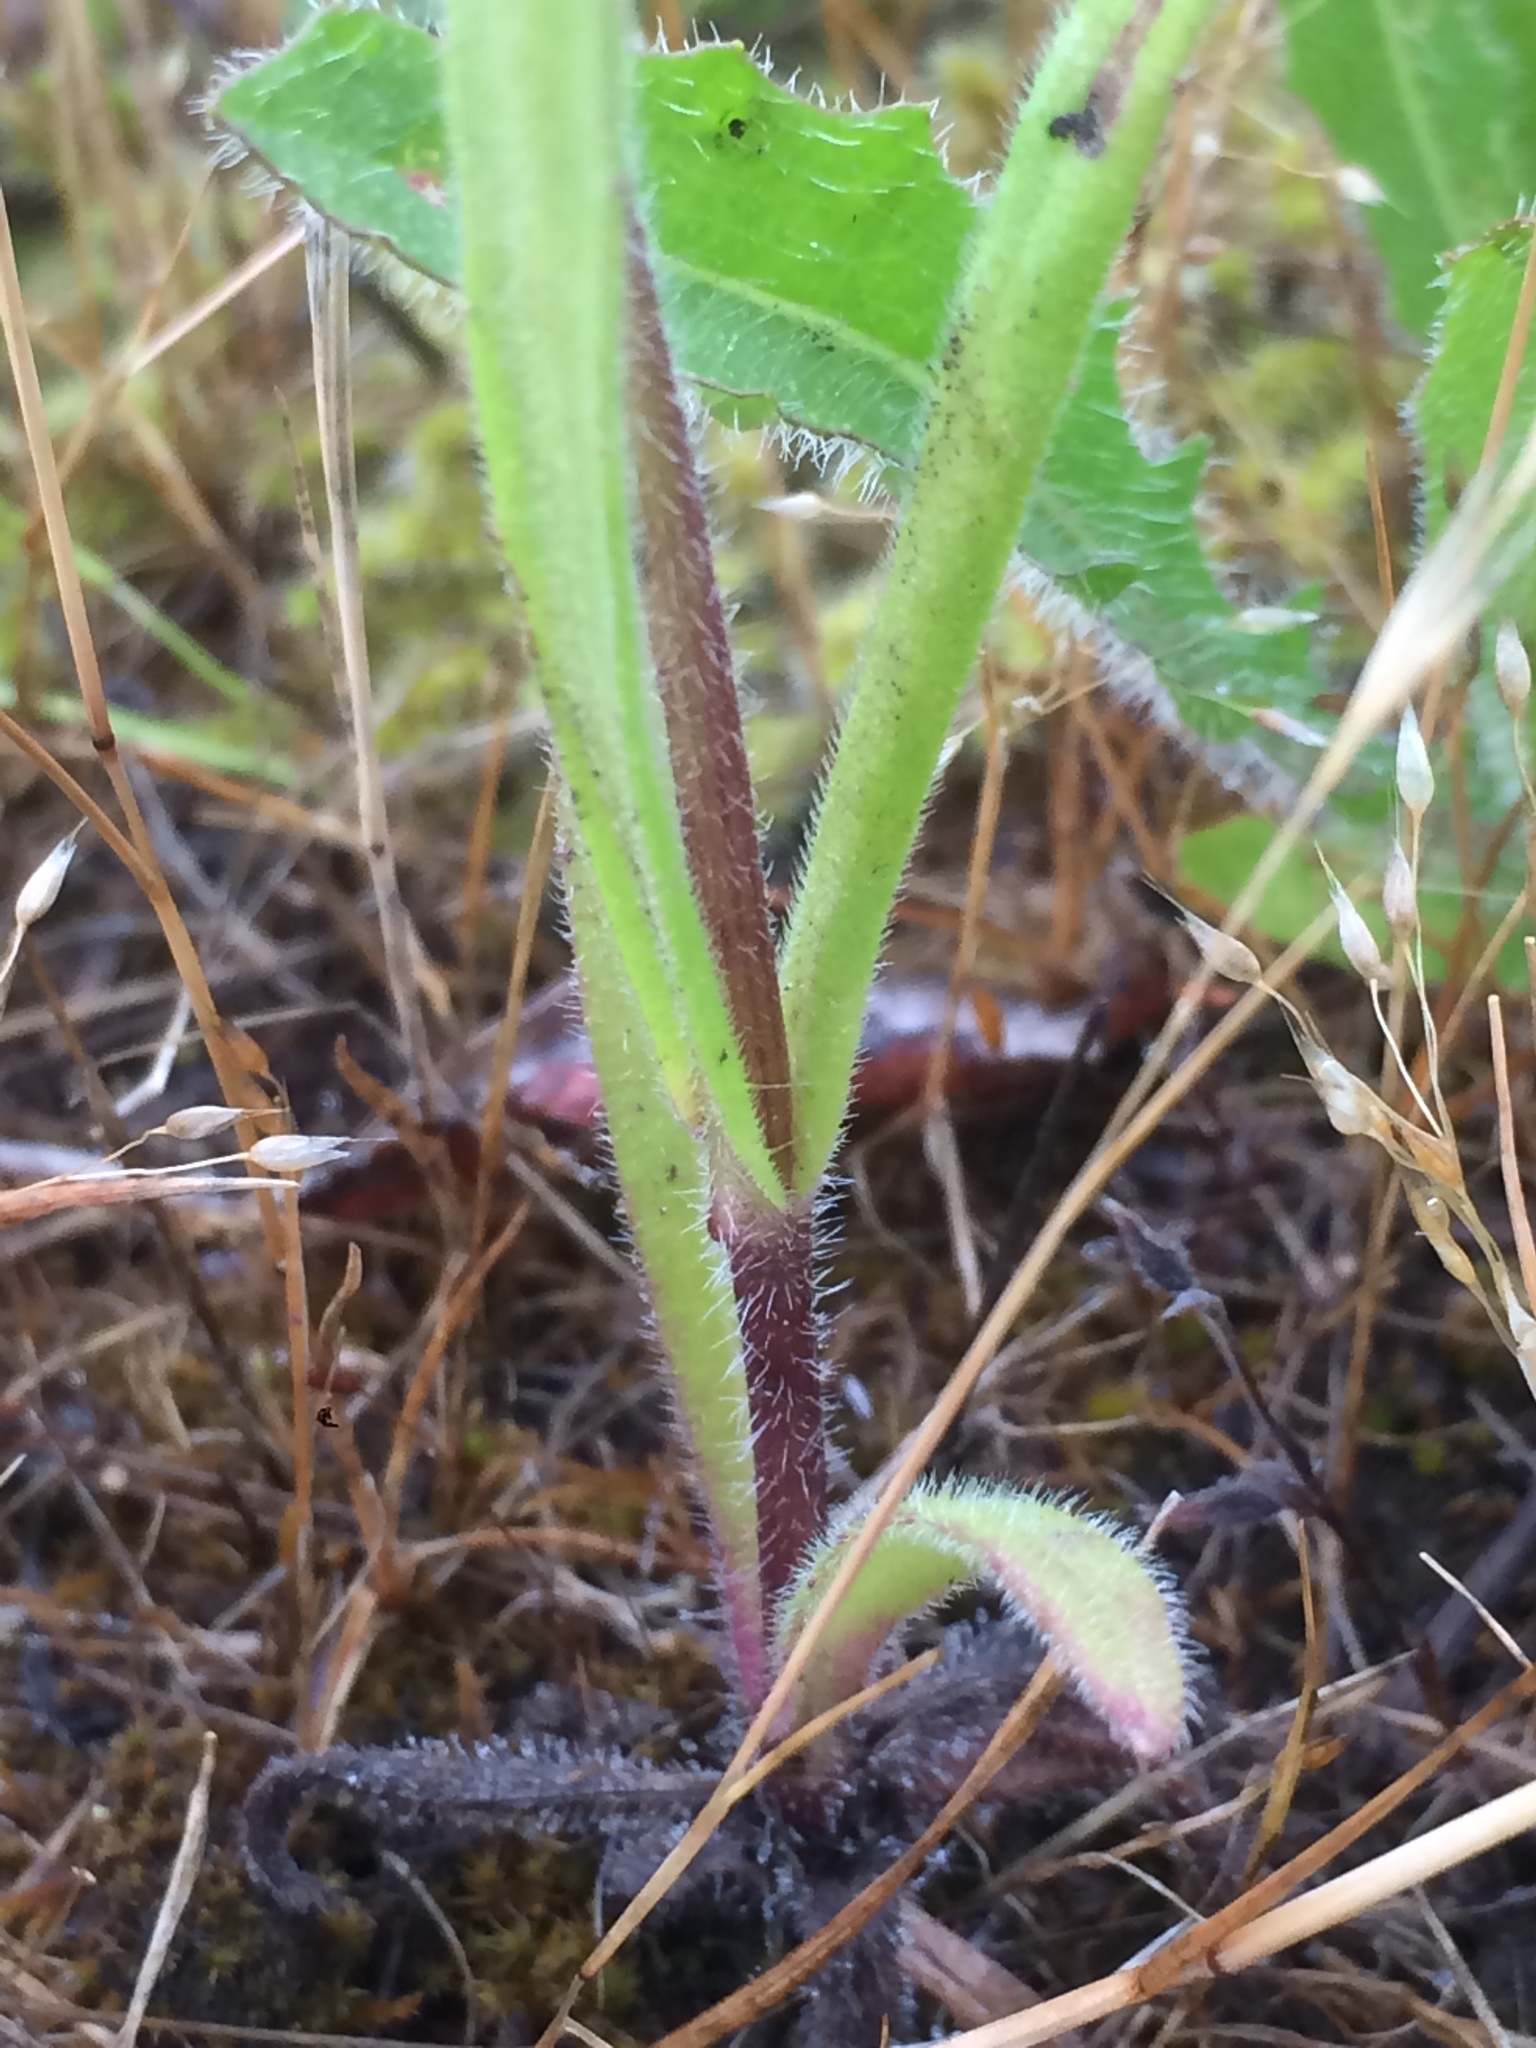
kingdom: Plantae
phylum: Tracheophyta
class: Magnoliopsida
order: Asterales
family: Asteraceae
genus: Madia
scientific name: Madia gracilis
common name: Grassy tarweed
